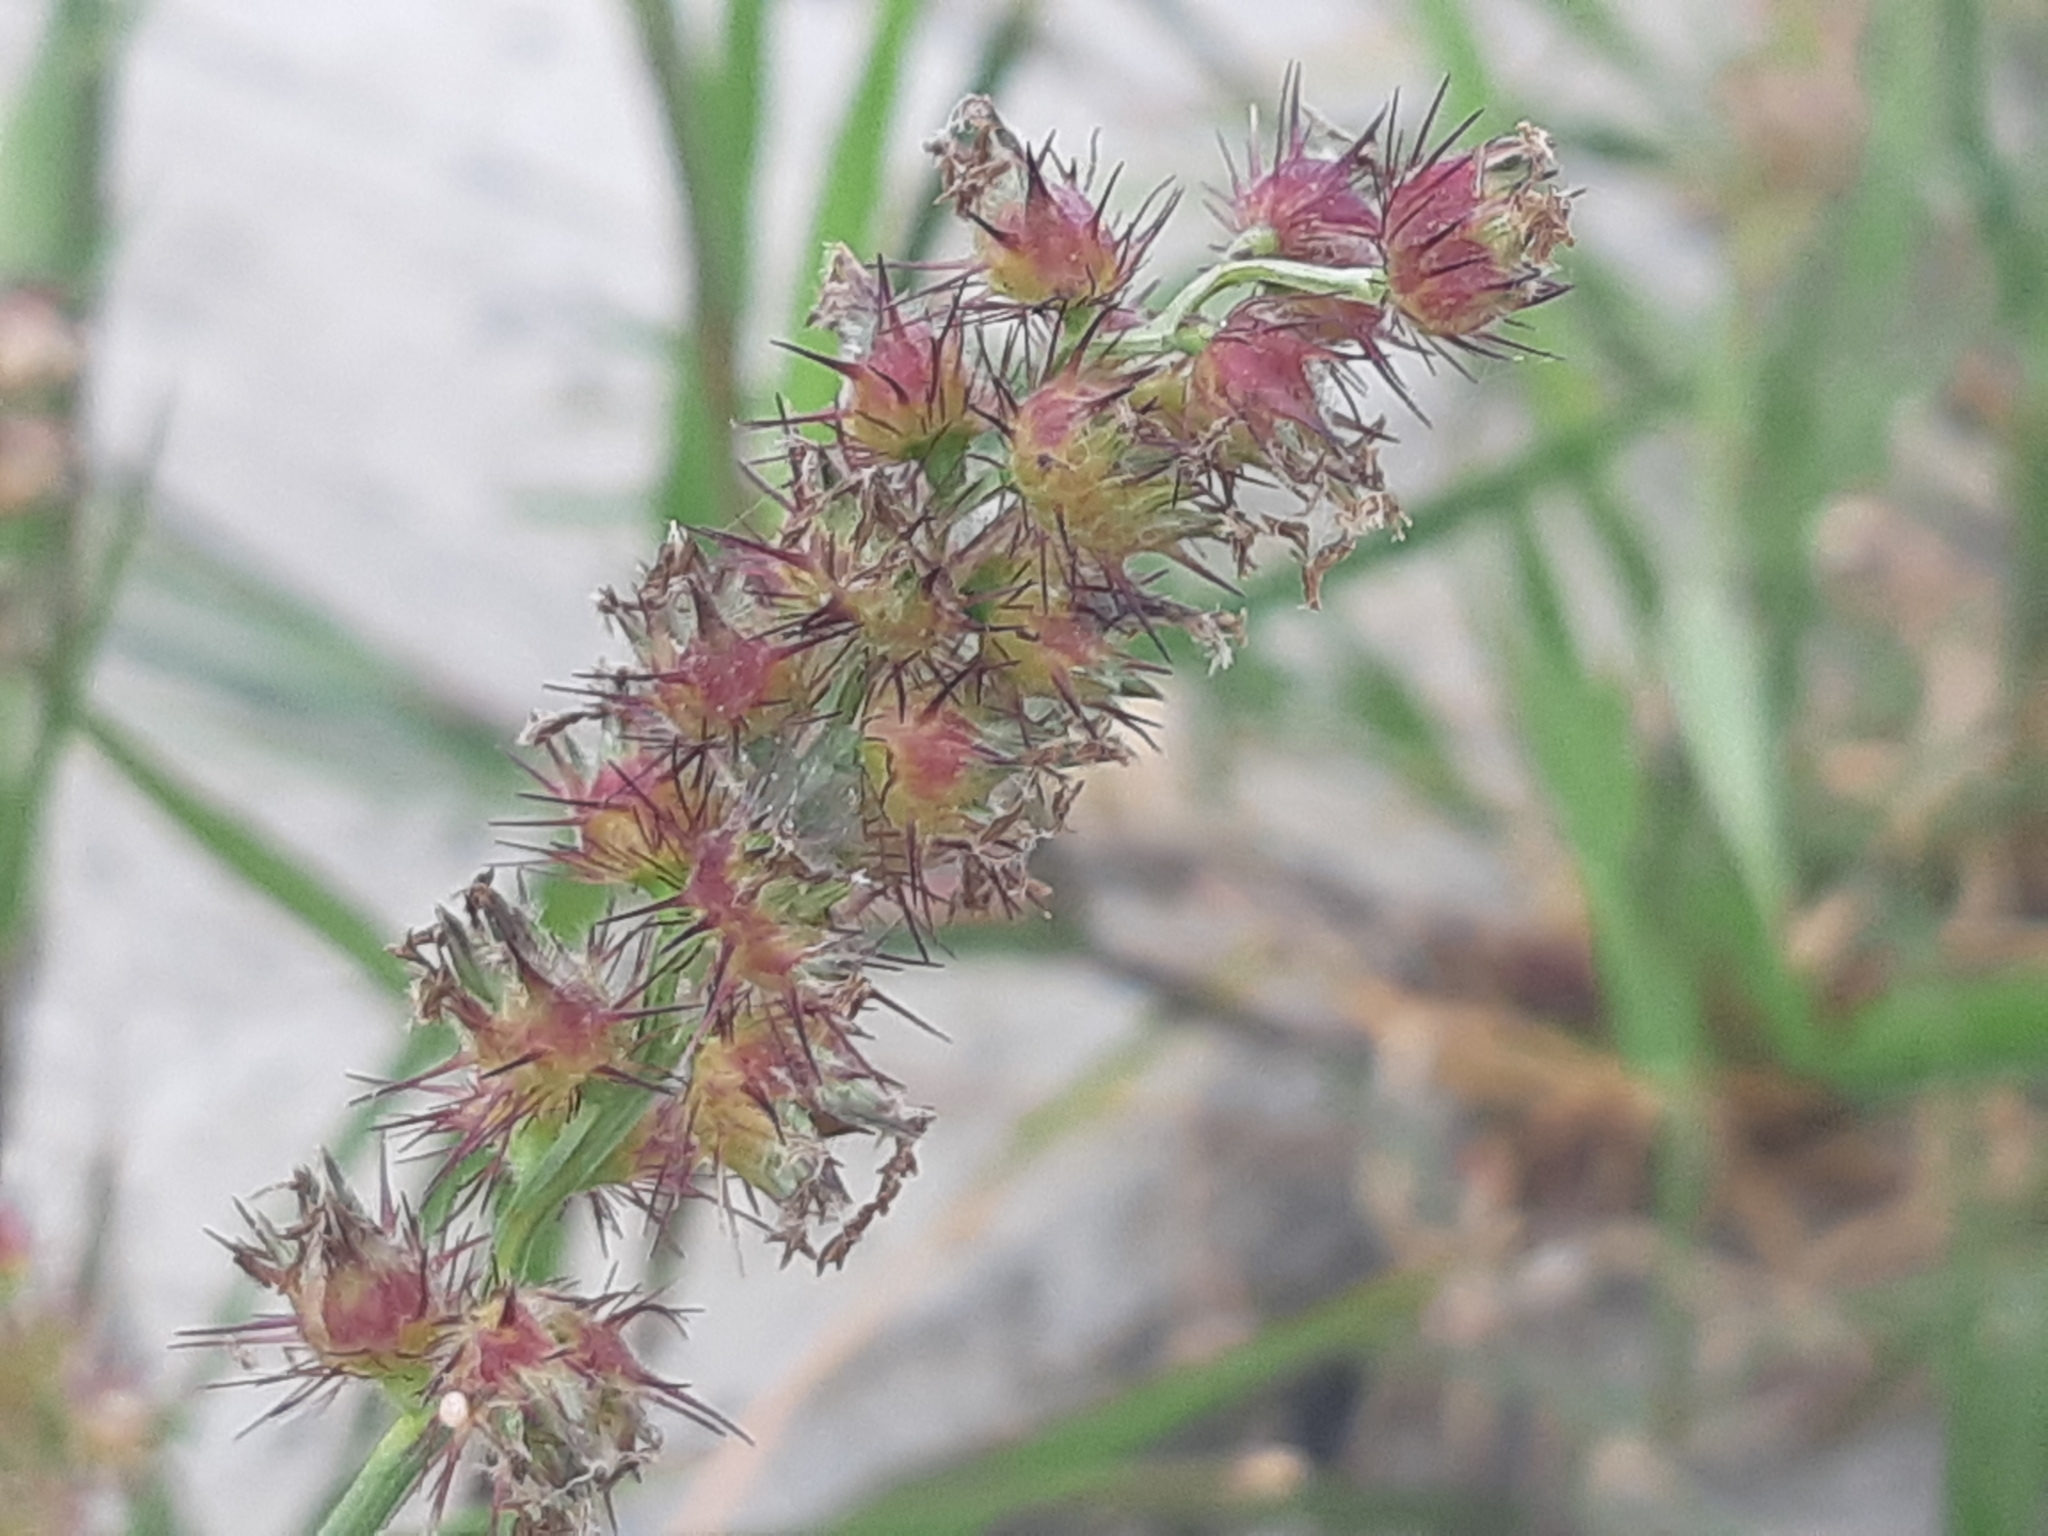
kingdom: Plantae
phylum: Tracheophyta
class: Liliopsida
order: Poales
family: Poaceae
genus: Cenchrus
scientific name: Cenchrus echinatus
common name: Southern sandbur
